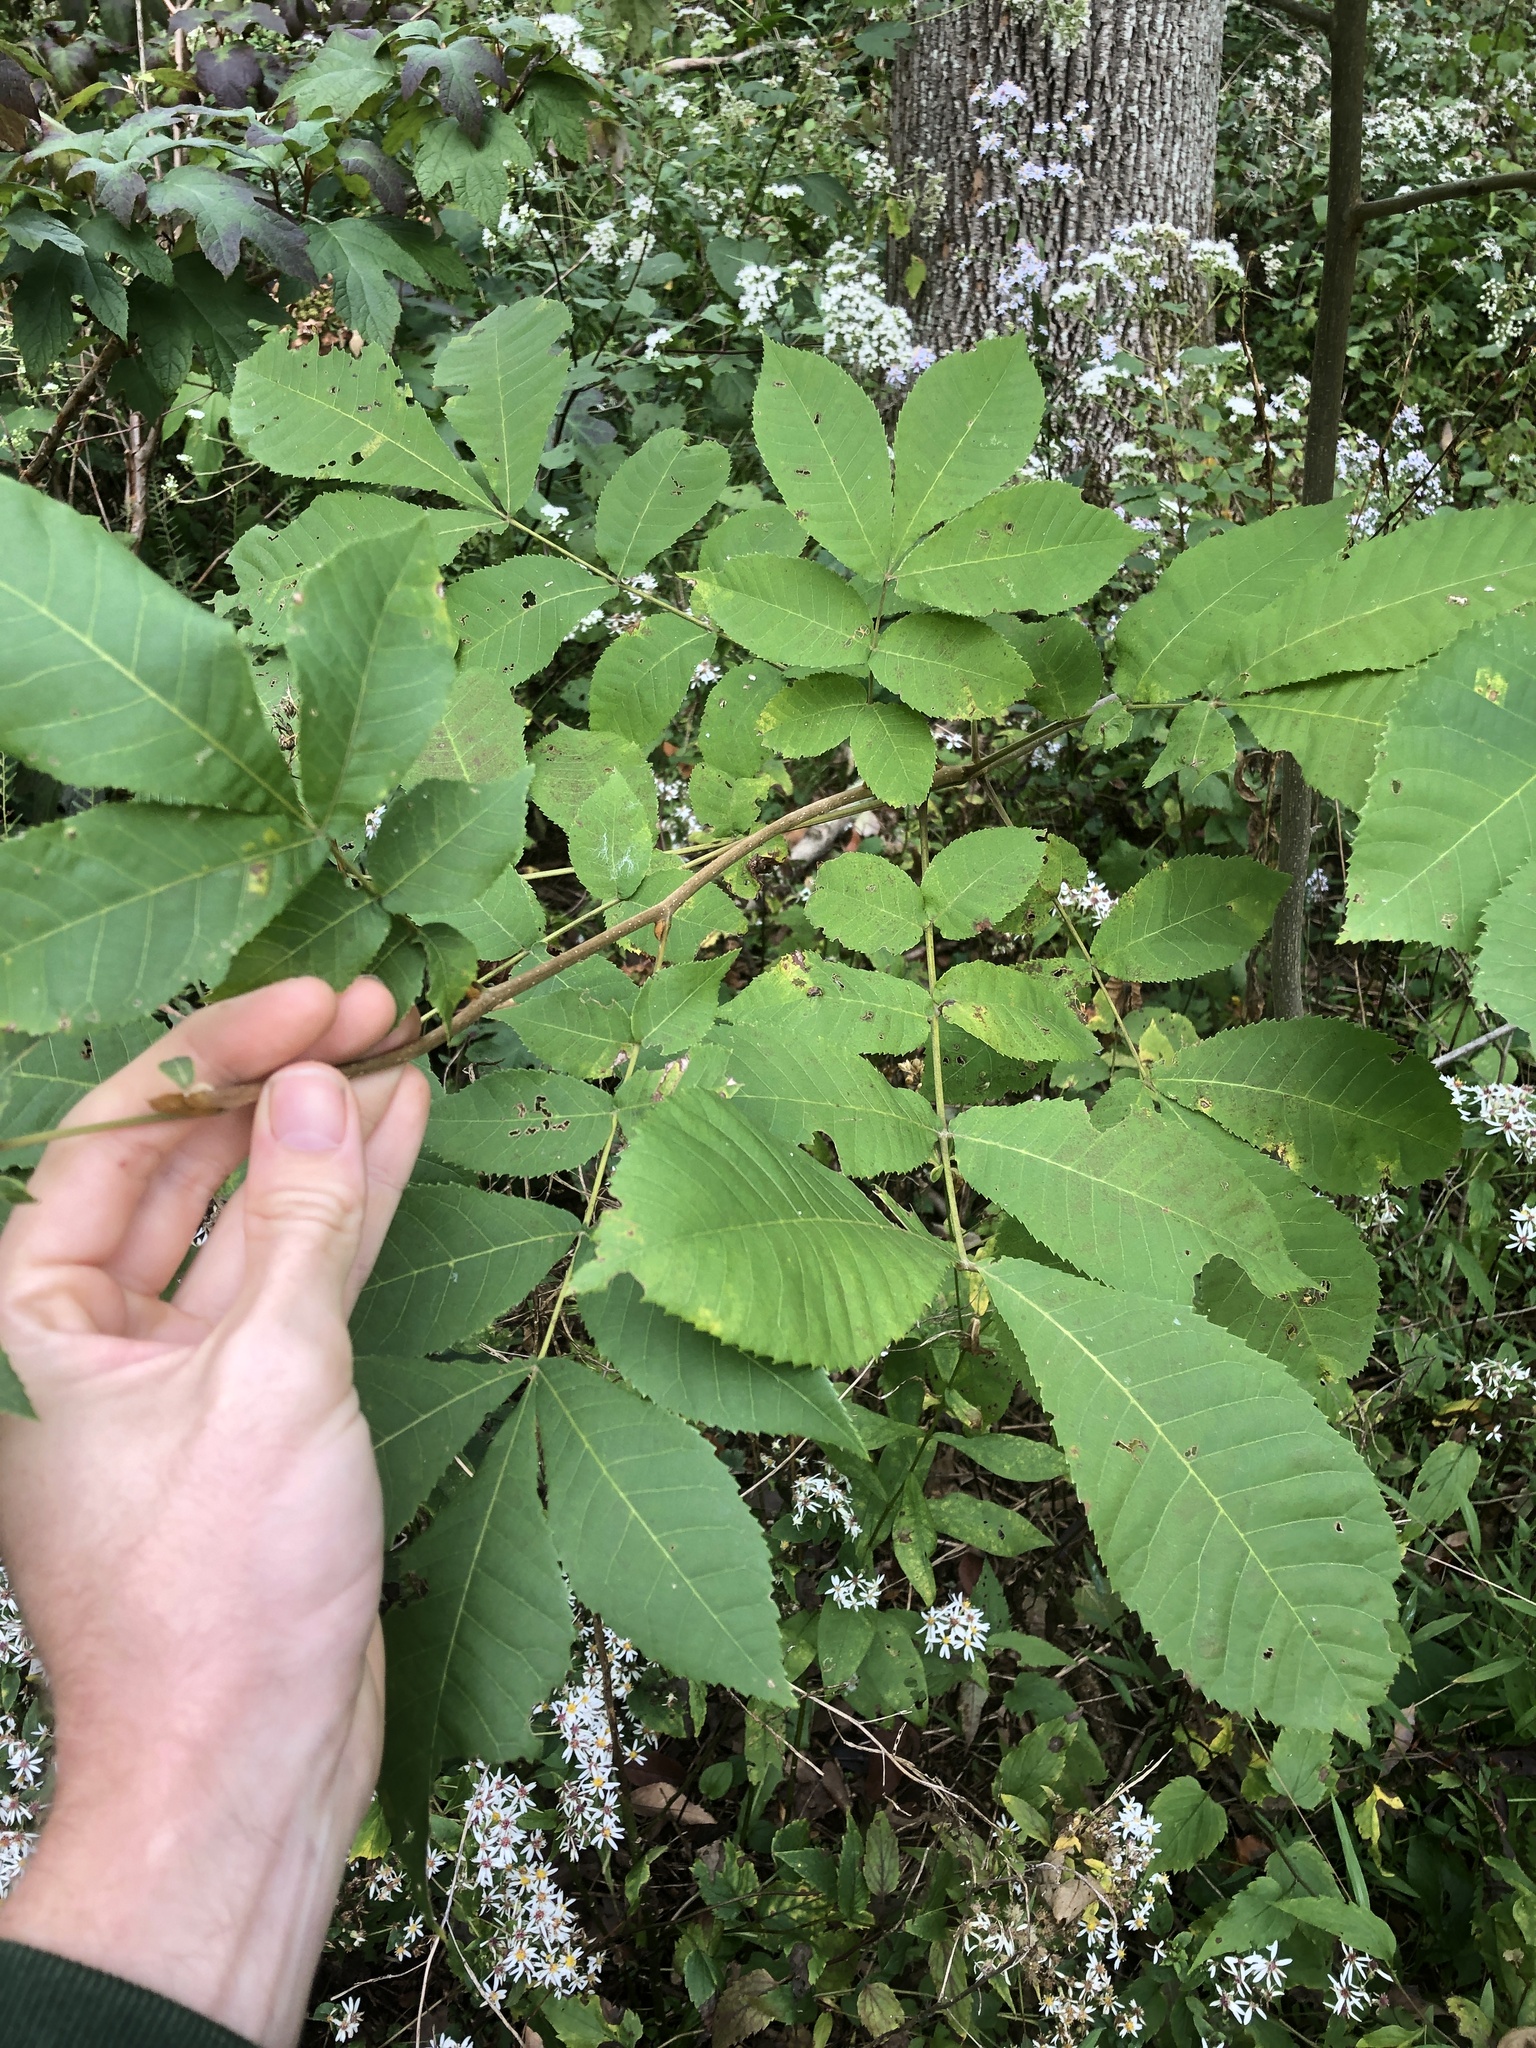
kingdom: Plantae
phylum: Tracheophyta
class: Magnoliopsida
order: Fagales
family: Juglandaceae
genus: Carya
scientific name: Carya cordiformis
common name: Bitternut hickory
